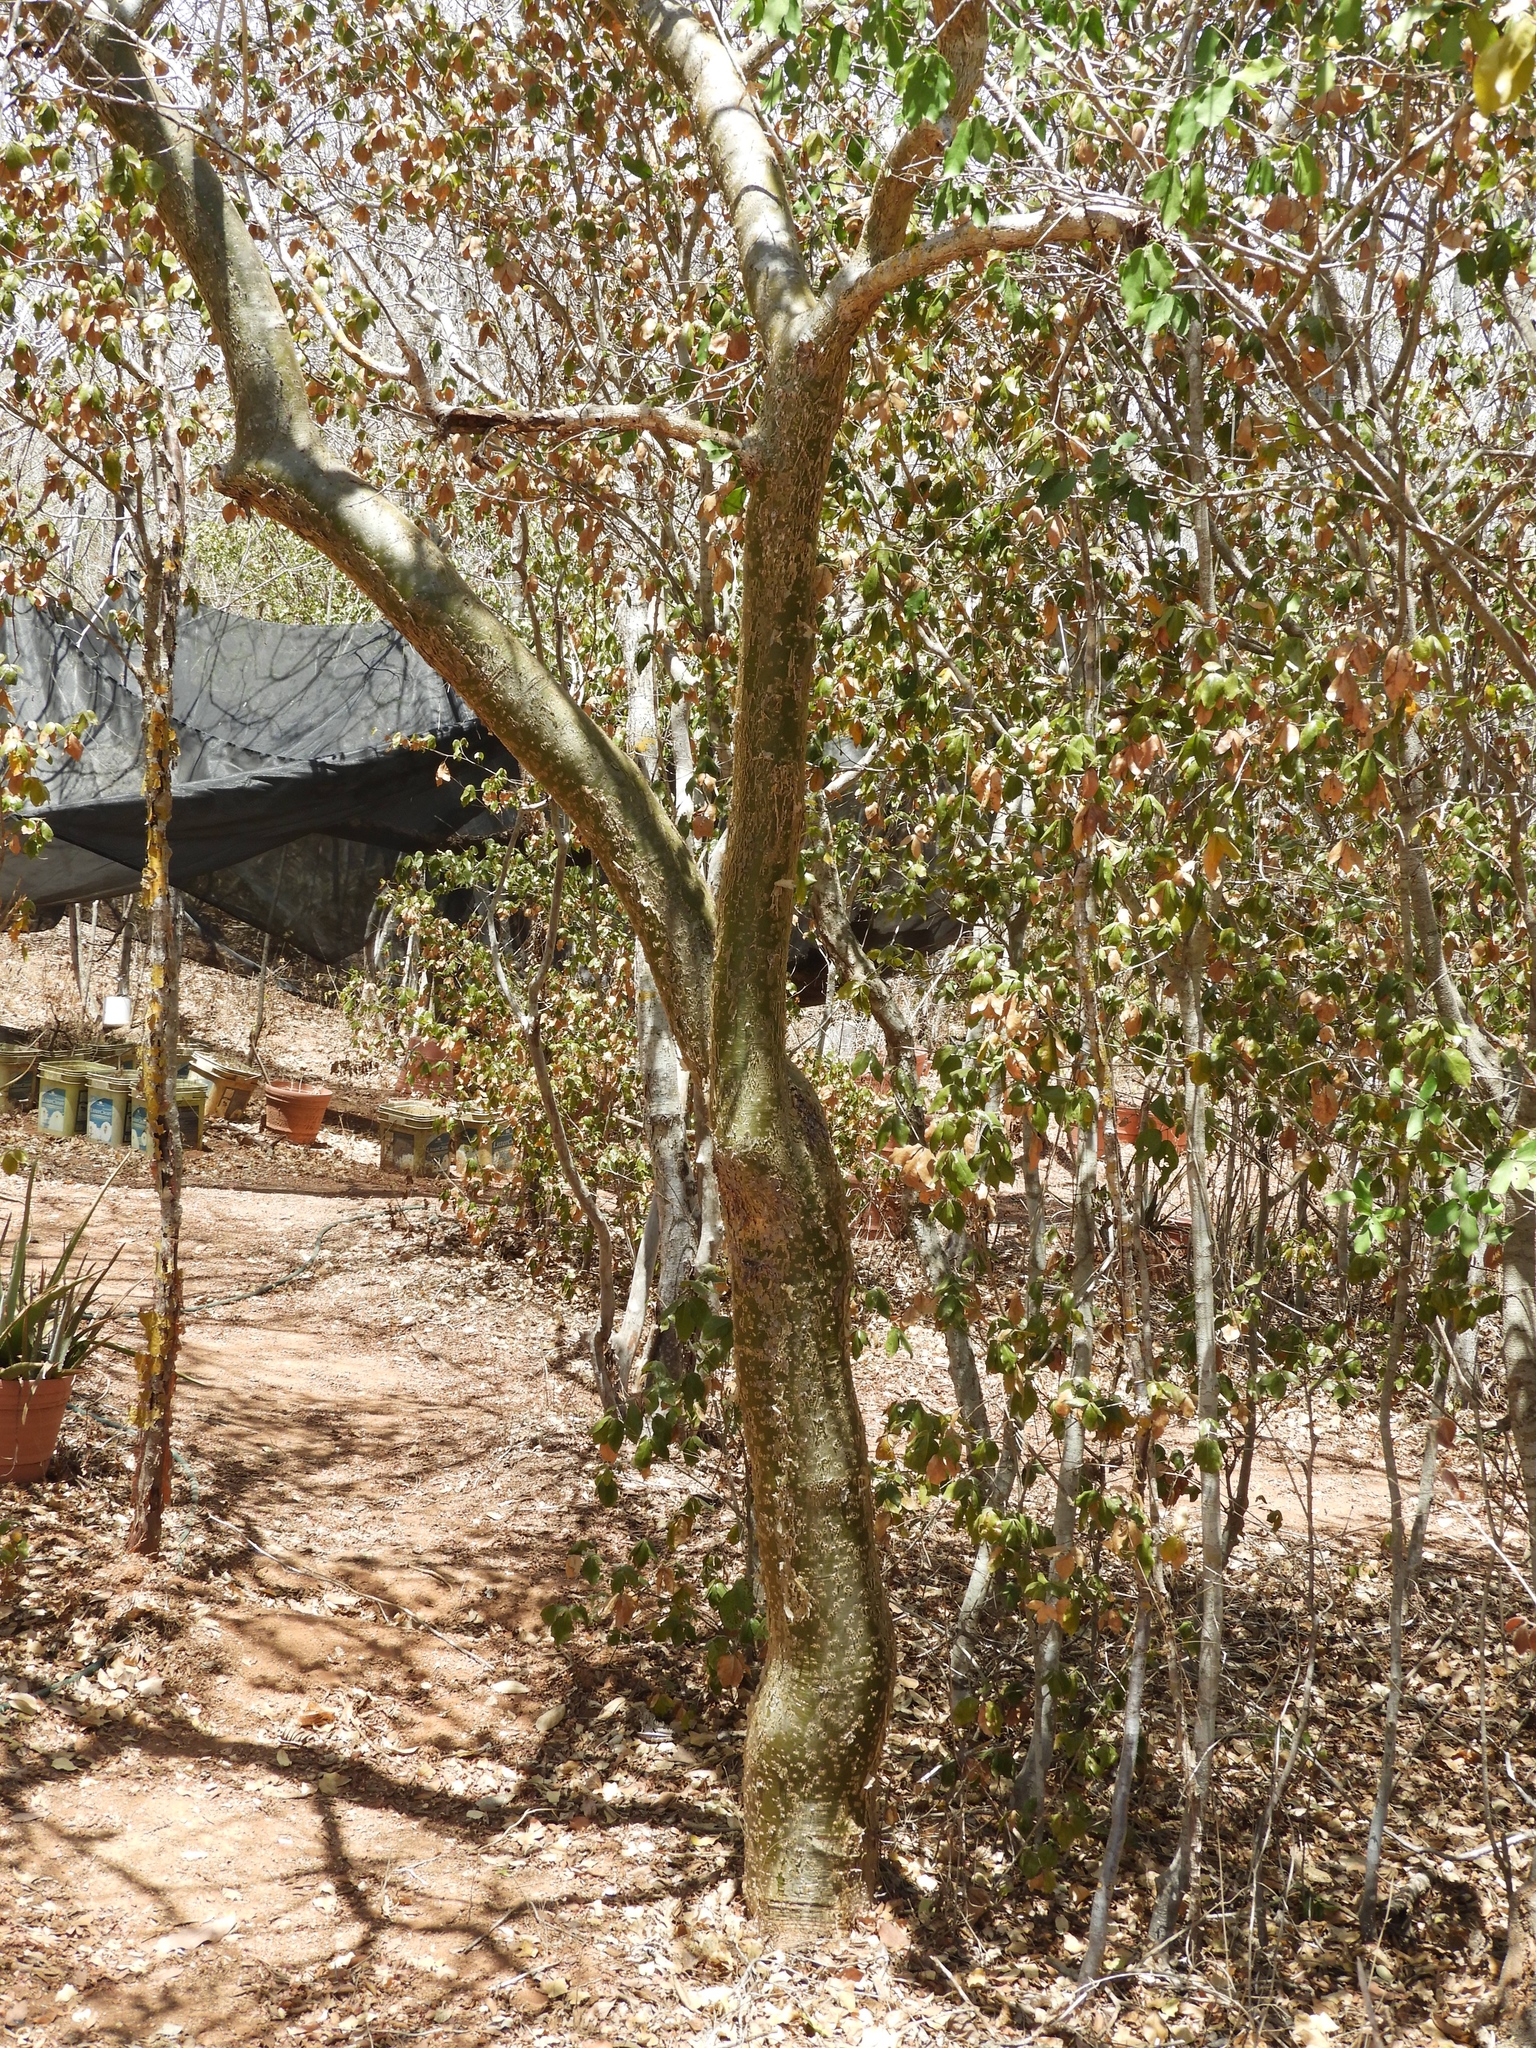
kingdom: Plantae
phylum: Tracheophyta
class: Magnoliopsida
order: Malpighiales
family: Euphorbiaceae
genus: Jatropha
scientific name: Jatropha cordata
